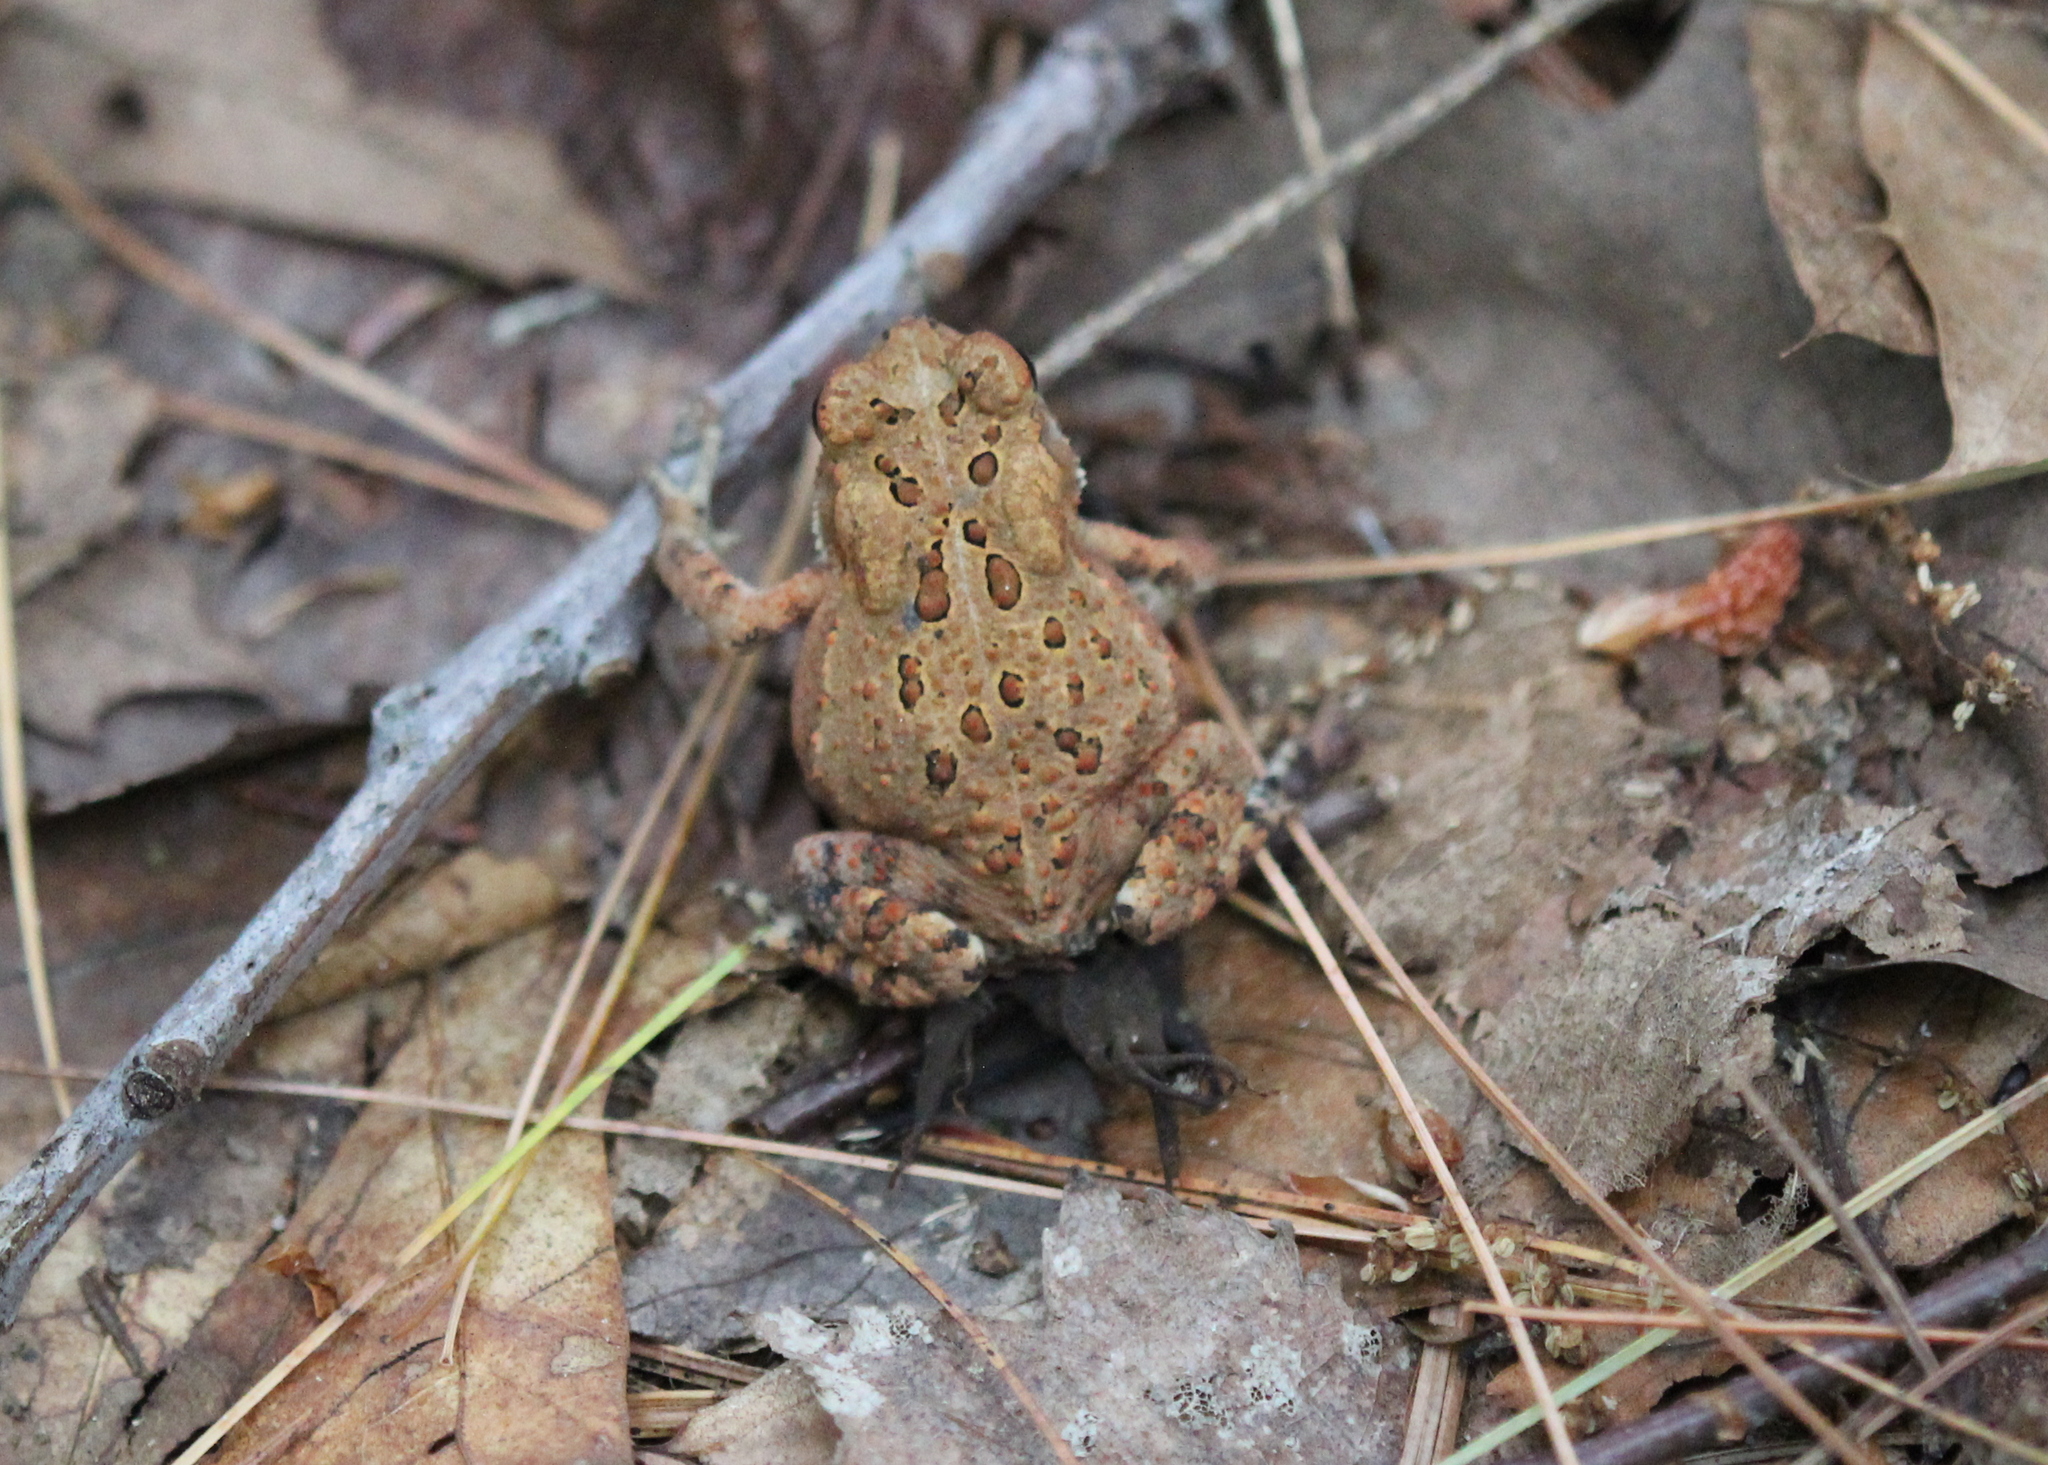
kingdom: Animalia
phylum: Chordata
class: Amphibia
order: Anura
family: Bufonidae
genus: Anaxyrus
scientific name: Anaxyrus americanus
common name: American toad
